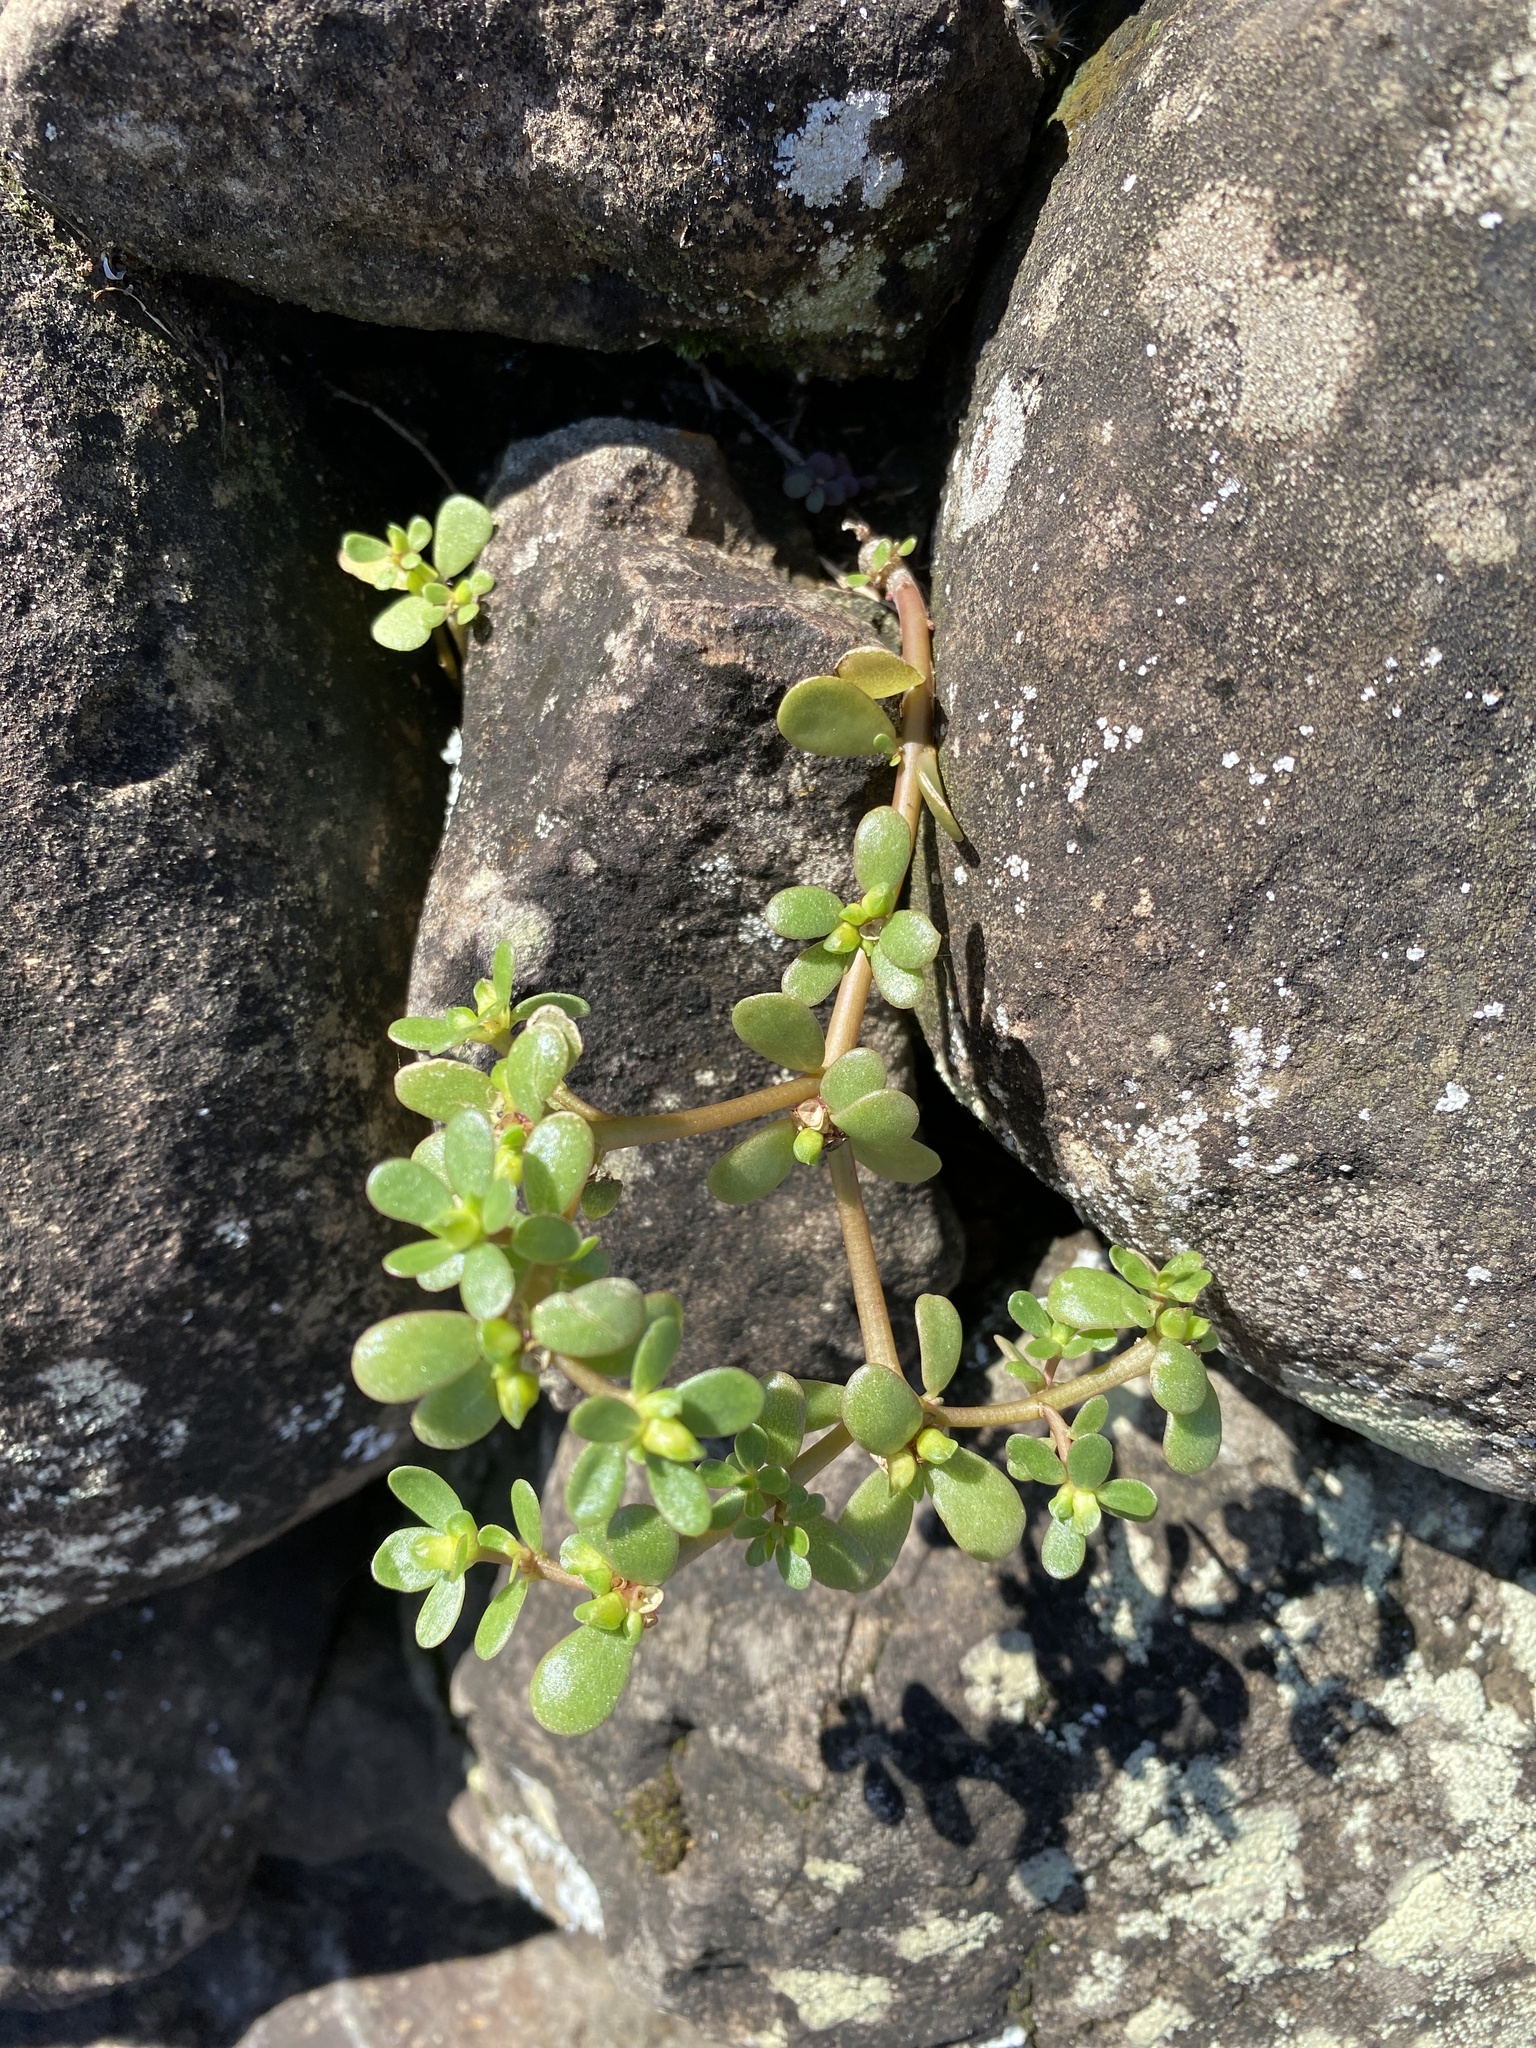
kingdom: Plantae
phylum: Tracheophyta
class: Magnoliopsida
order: Caryophyllales
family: Portulacaceae
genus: Portulaca
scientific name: Portulaca oleracea
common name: Common purslane
